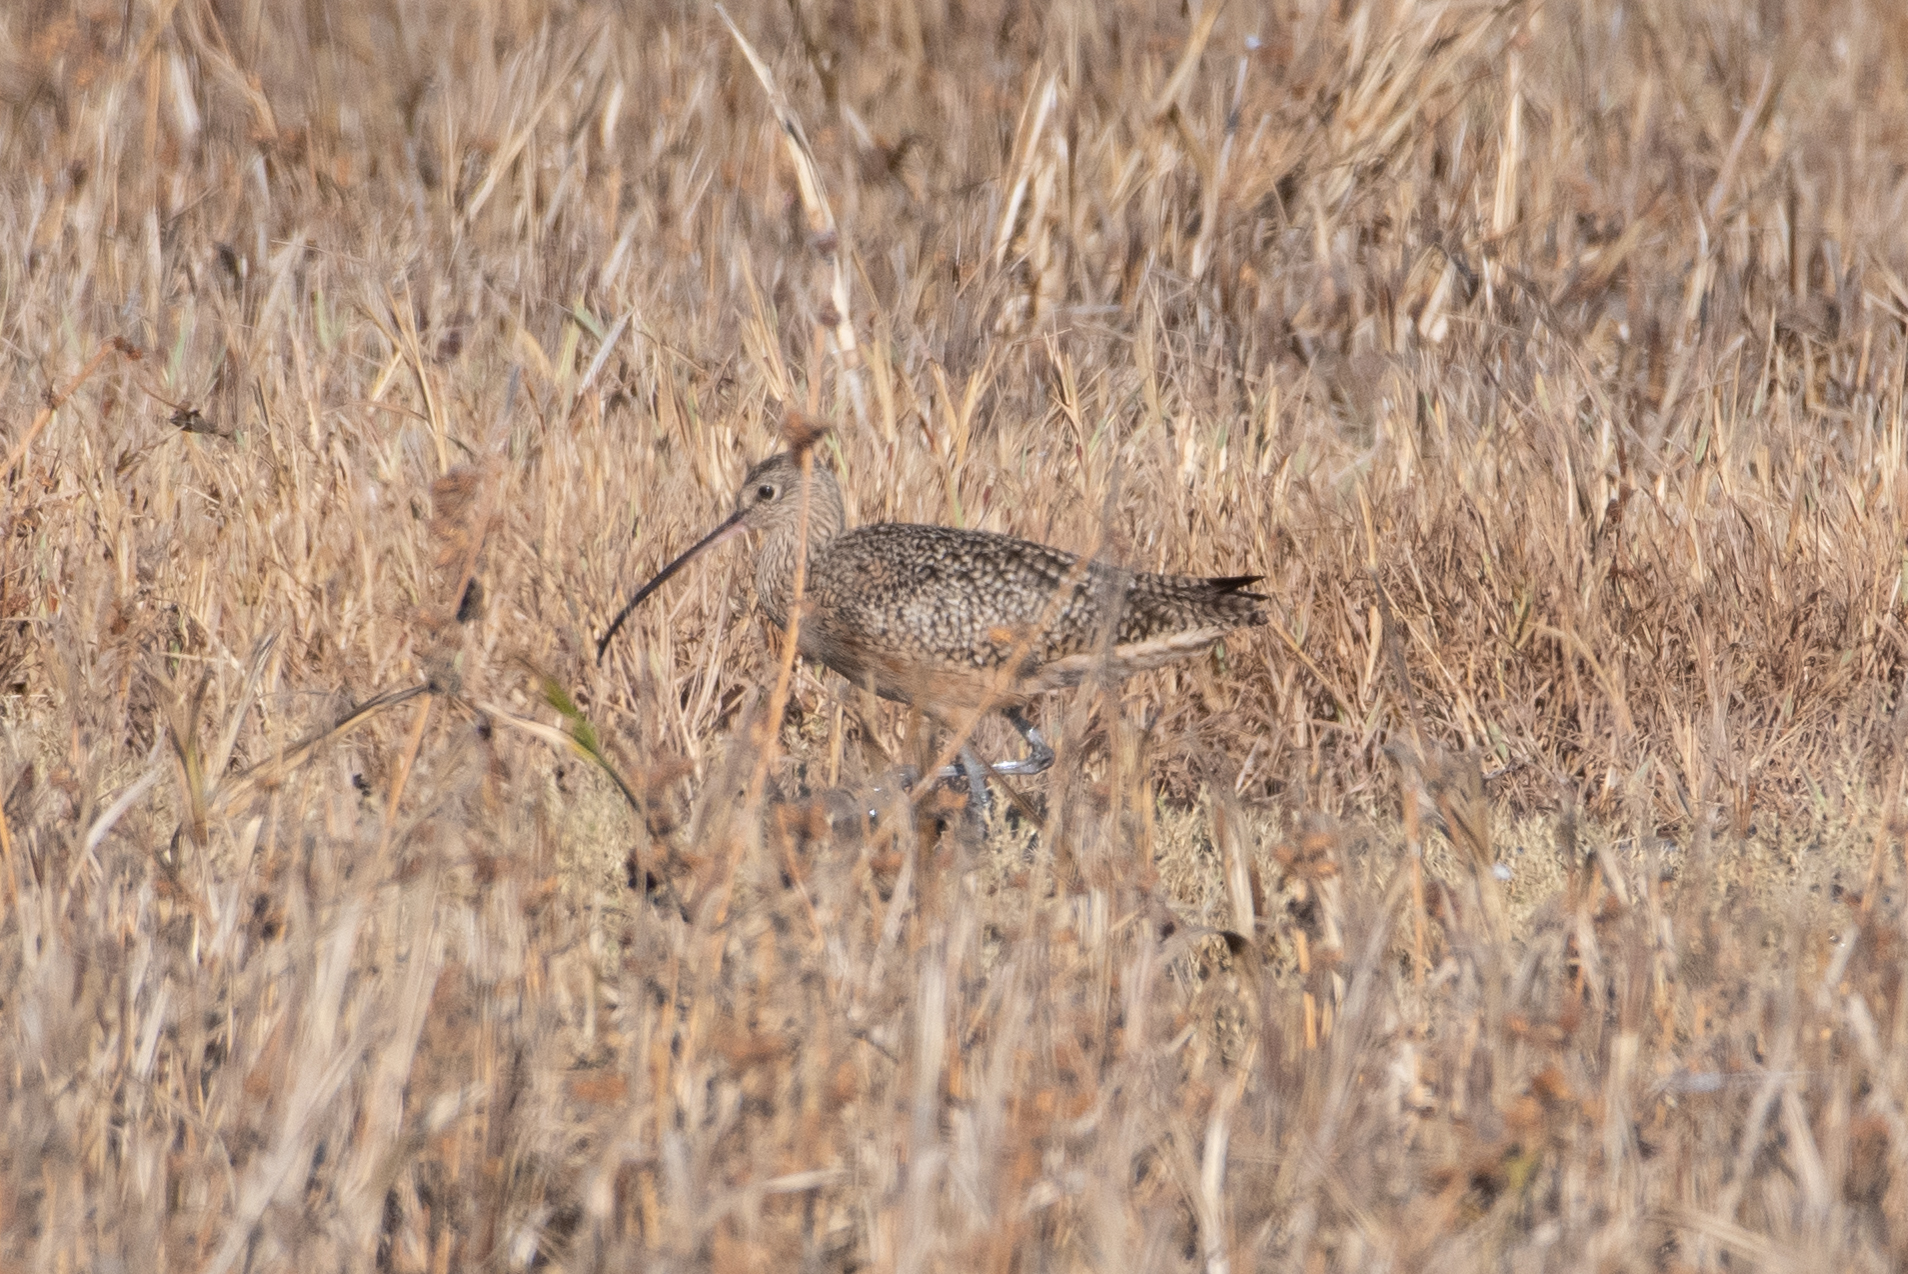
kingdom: Animalia
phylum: Chordata
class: Aves
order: Charadriiformes
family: Scolopacidae
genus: Numenius
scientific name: Numenius americanus
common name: Long-billed curlew
